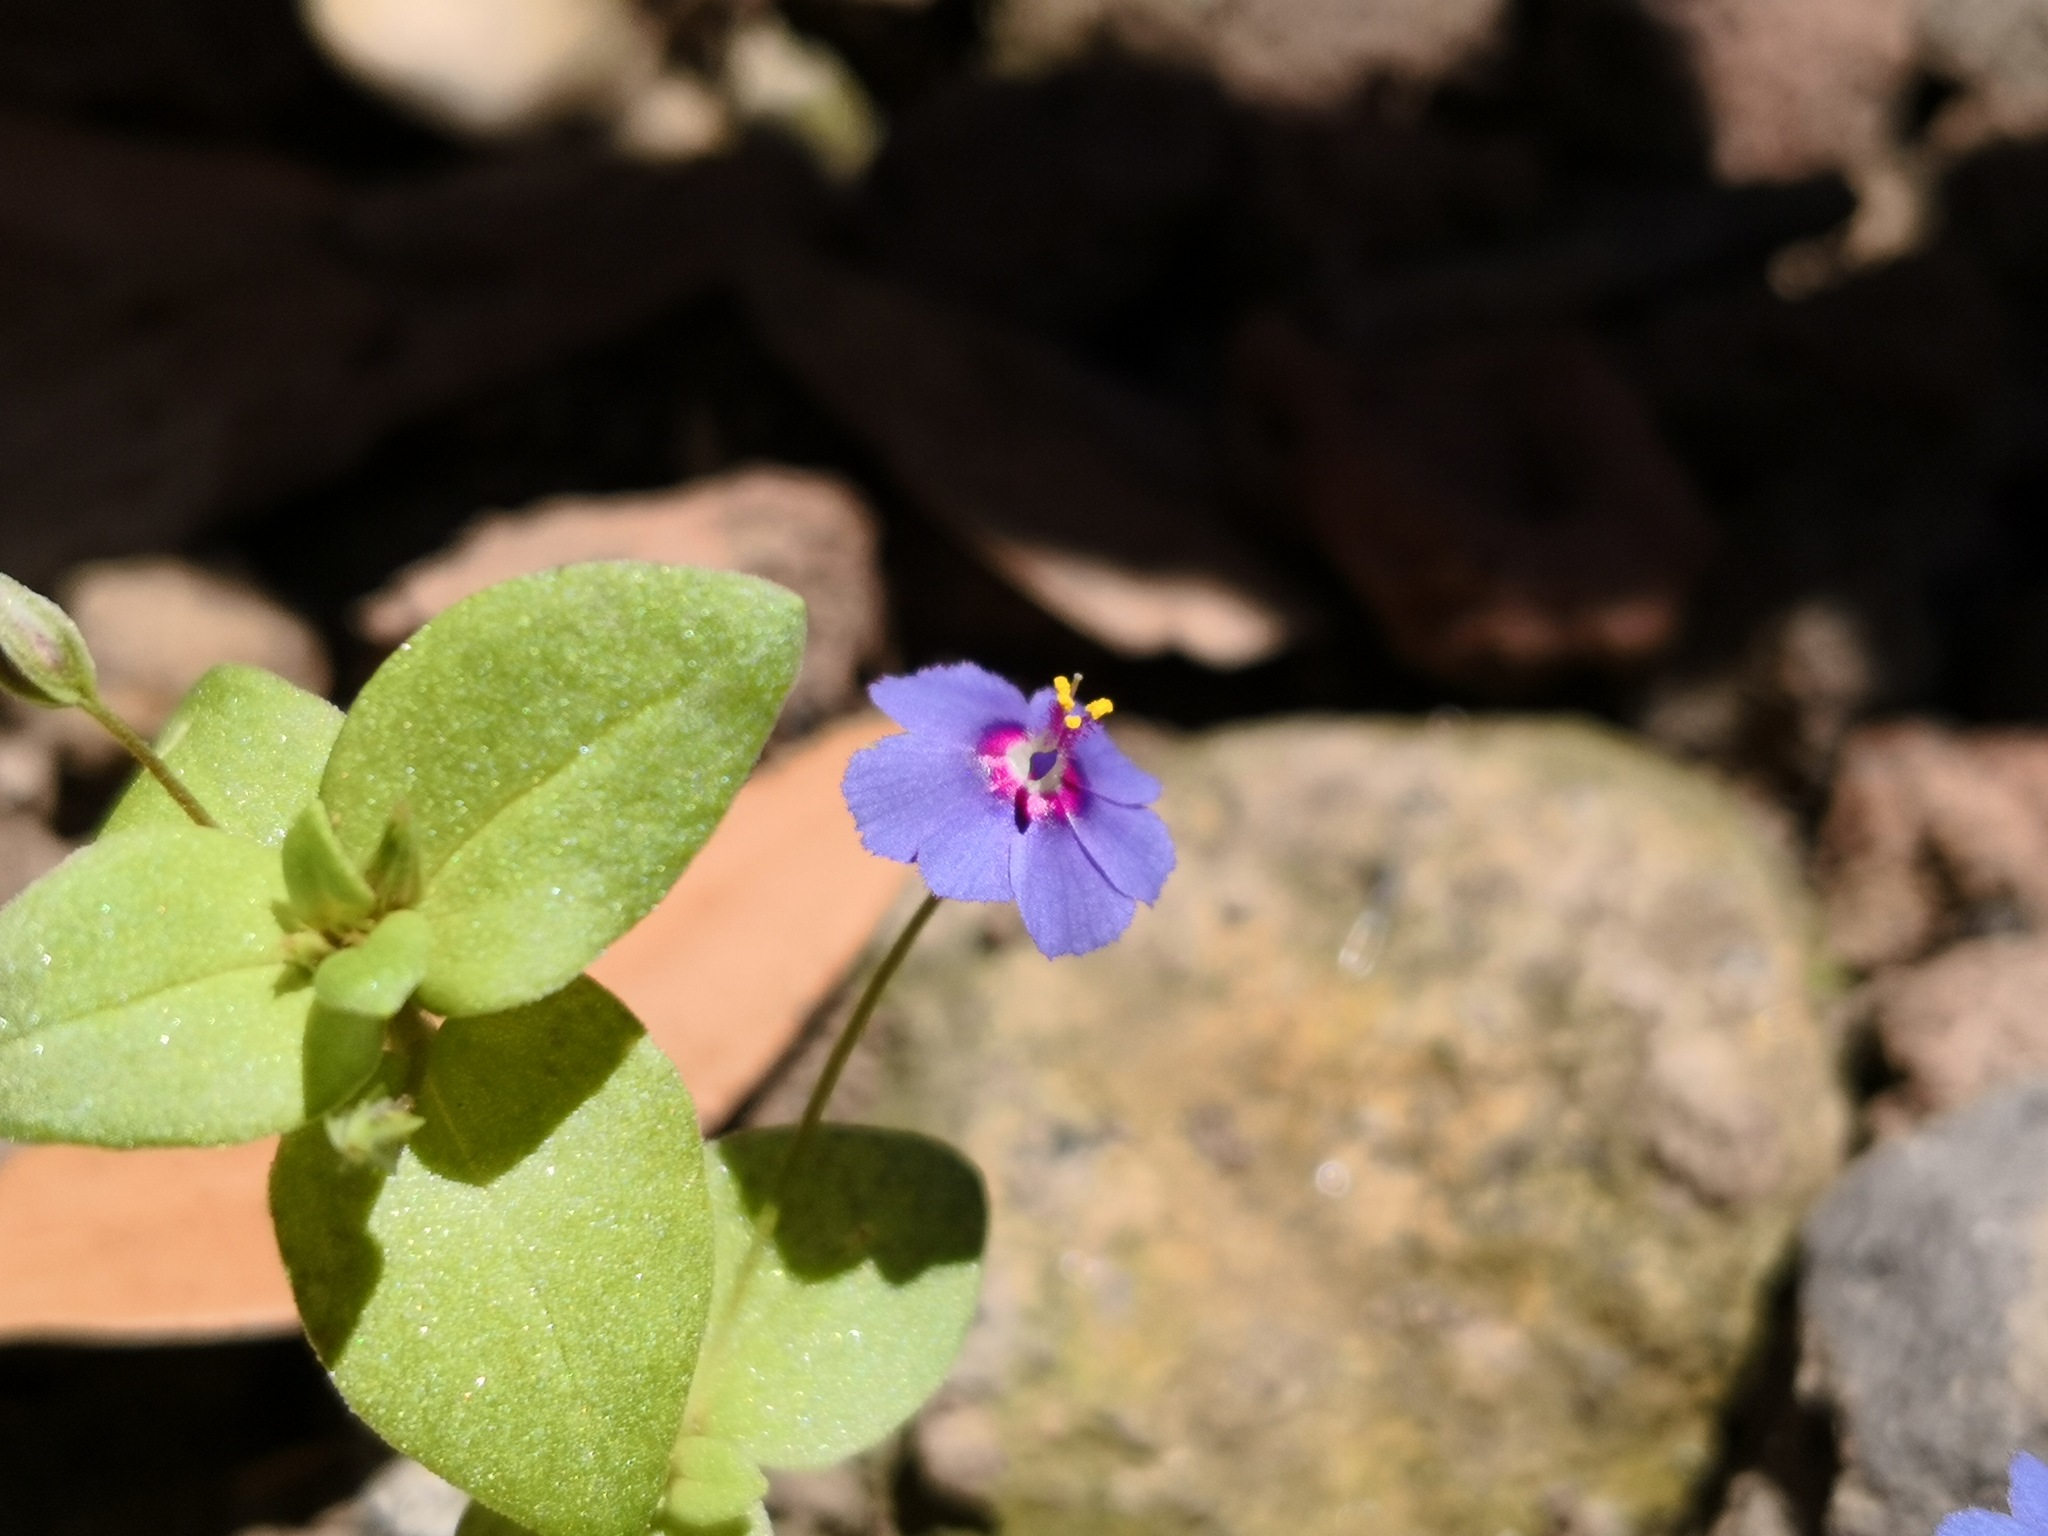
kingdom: Plantae
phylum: Tracheophyta
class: Magnoliopsida
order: Ericales
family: Primulaceae
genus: Lysimachia
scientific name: Lysimachia loeflingii
